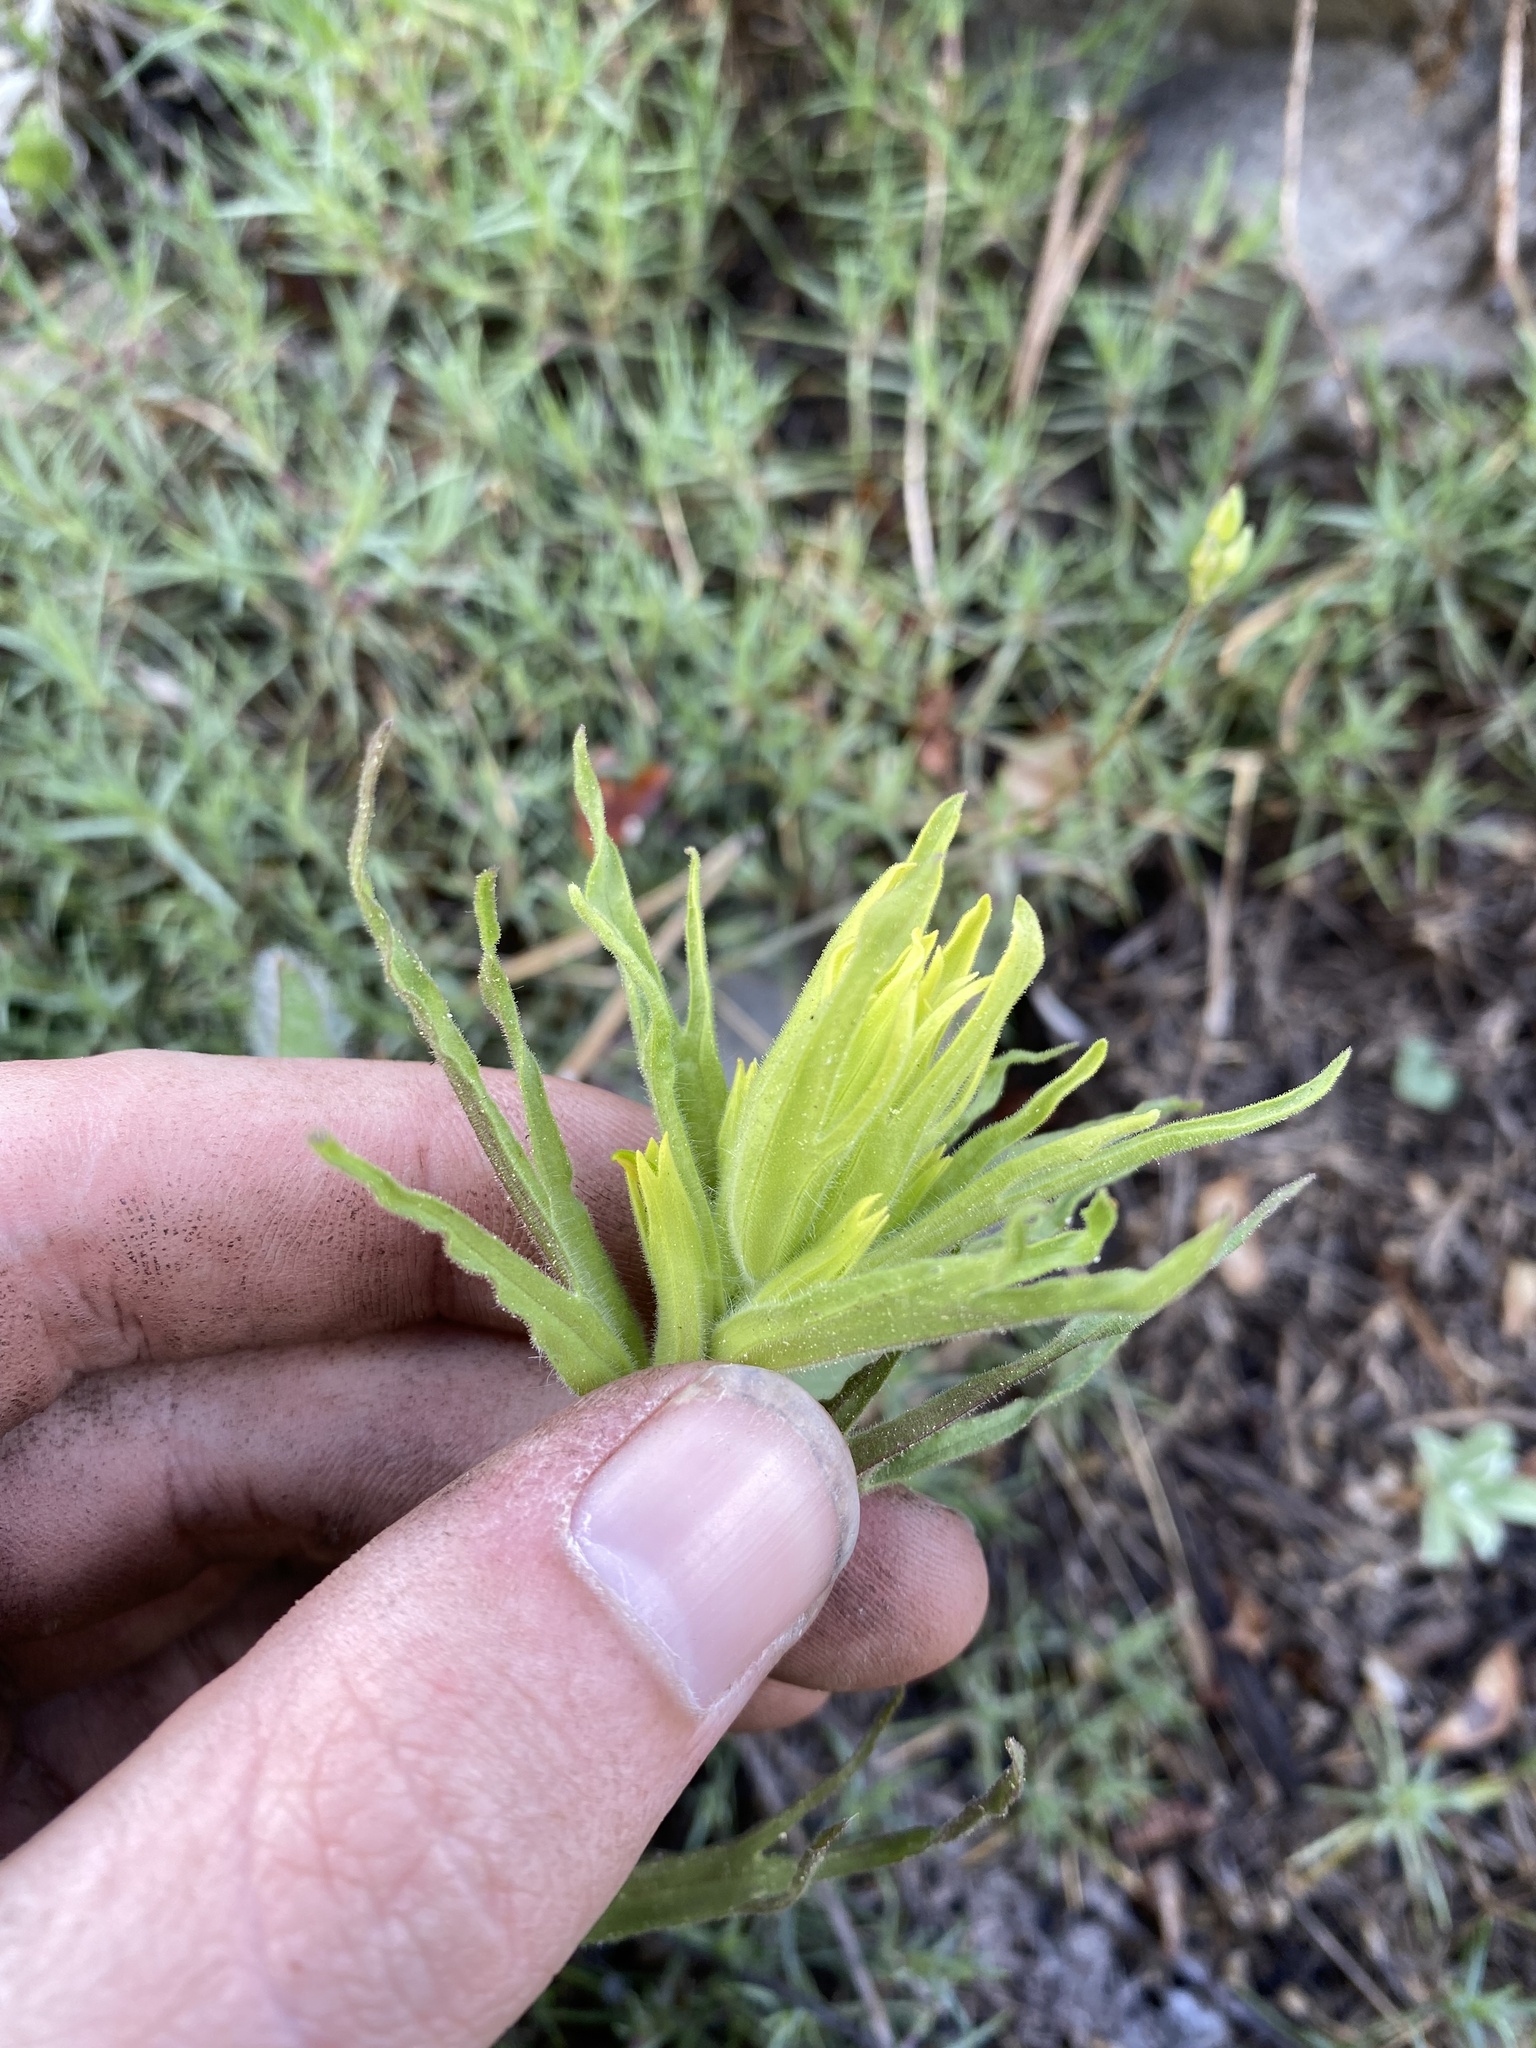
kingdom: Plantae
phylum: Tracheophyta
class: Magnoliopsida
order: Lamiales
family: Orobanchaceae
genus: Castilleja
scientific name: Castilleja glandulifera
